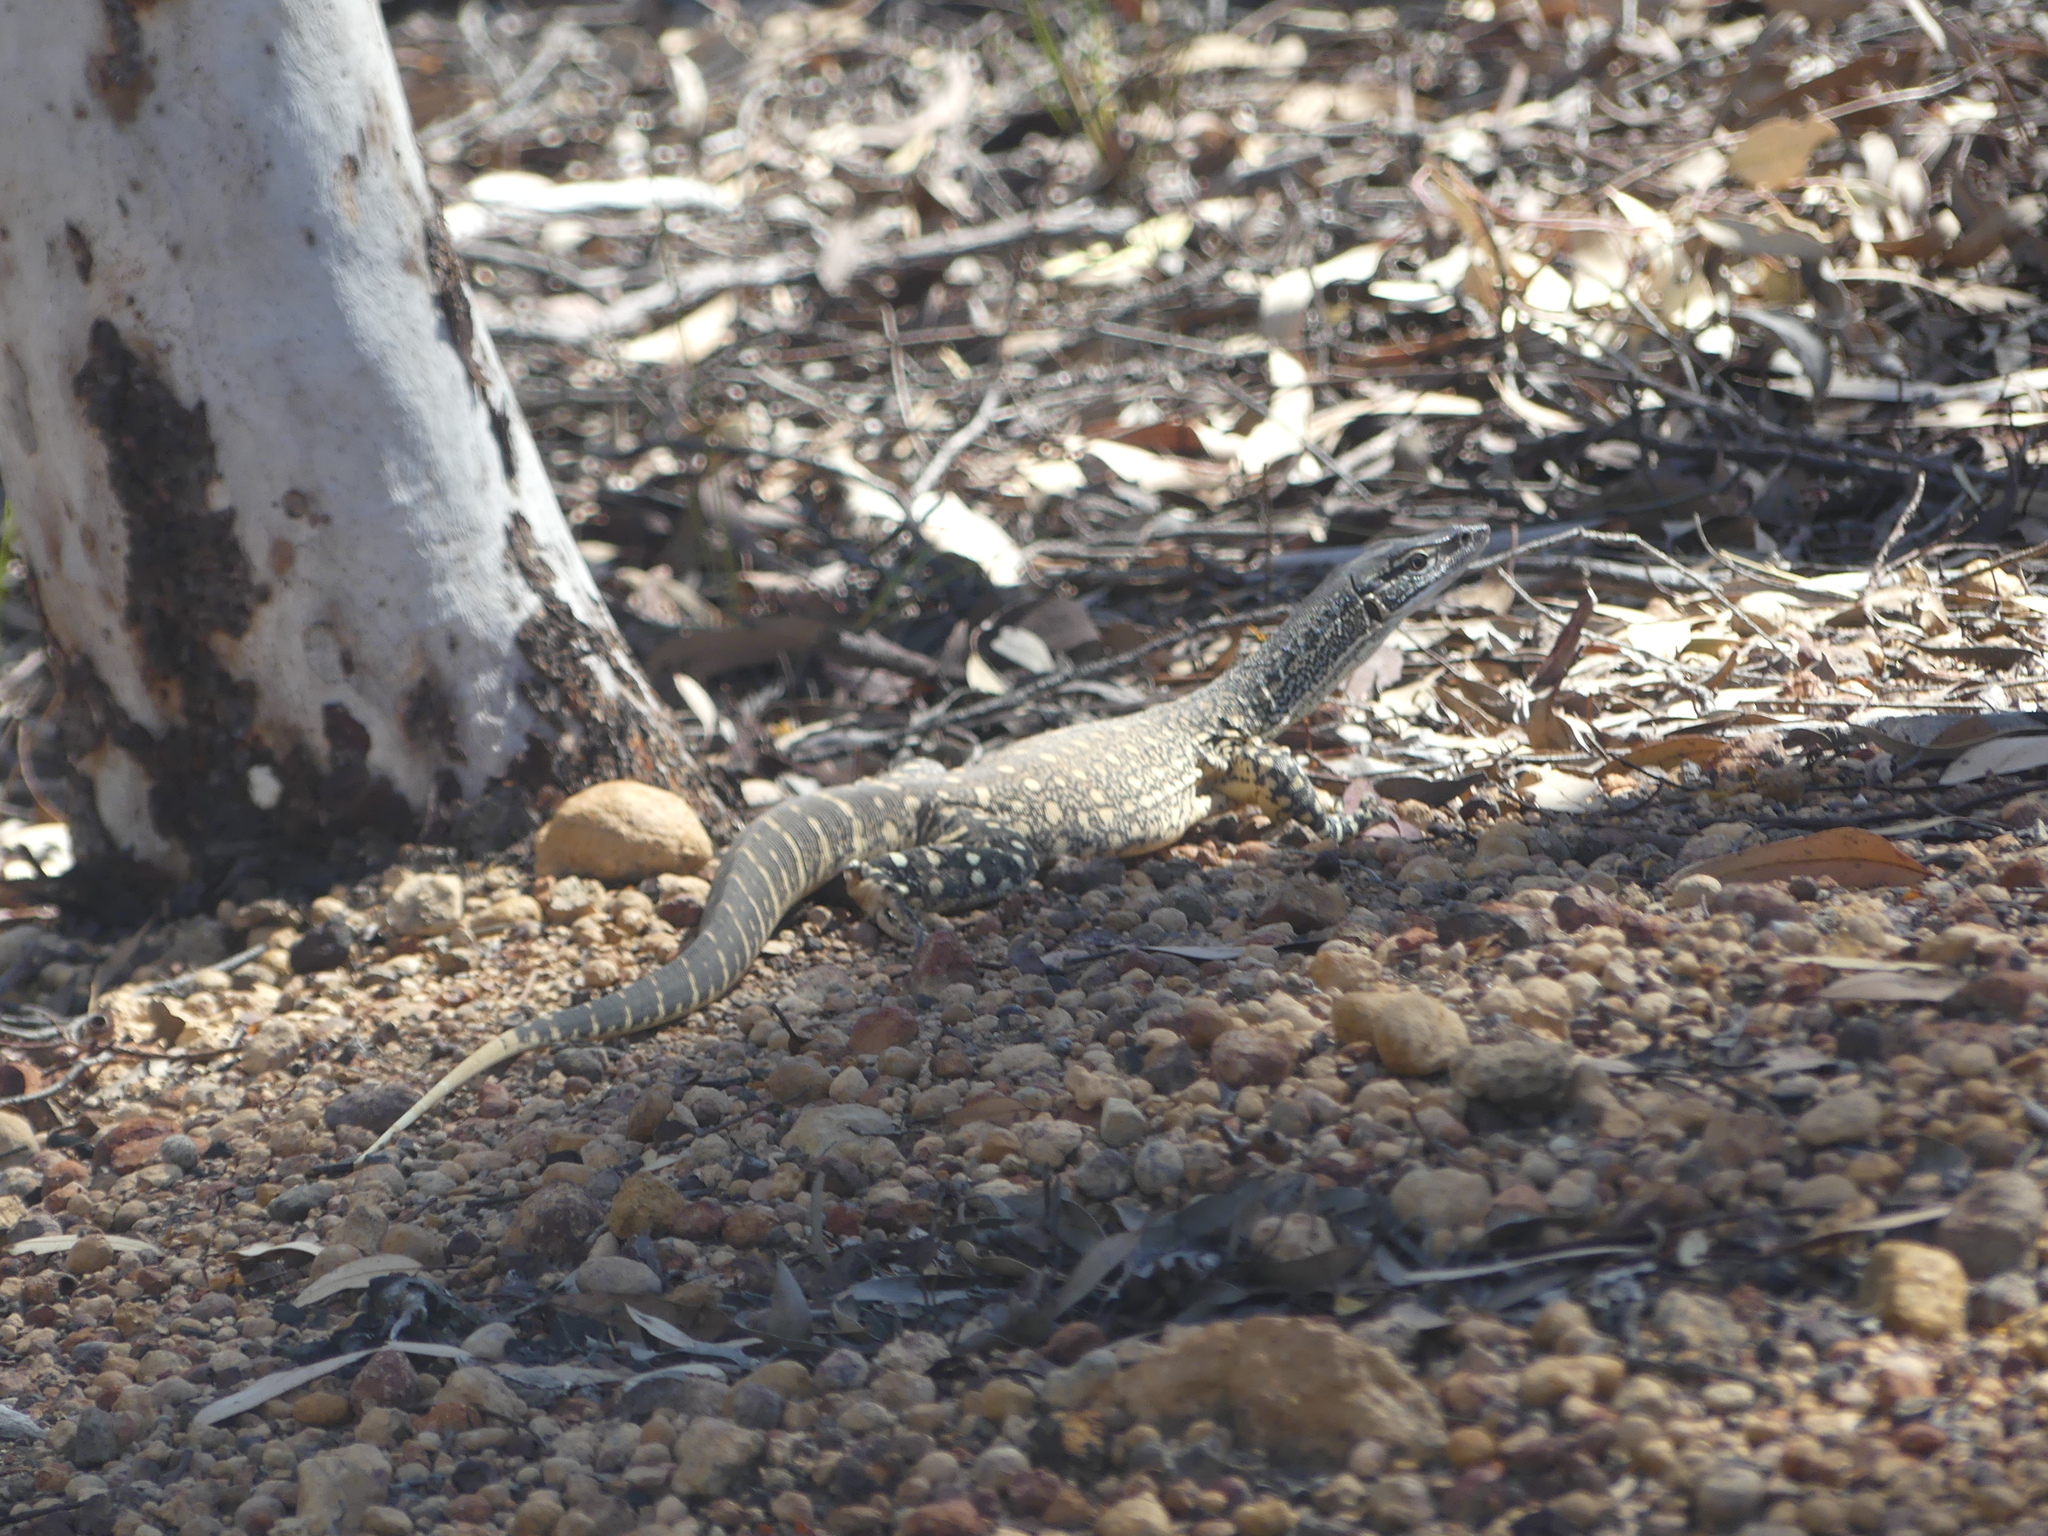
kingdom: Animalia
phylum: Chordata
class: Squamata
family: Varanidae
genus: Varanus
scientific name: Varanus gouldii
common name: Gould's goanna
